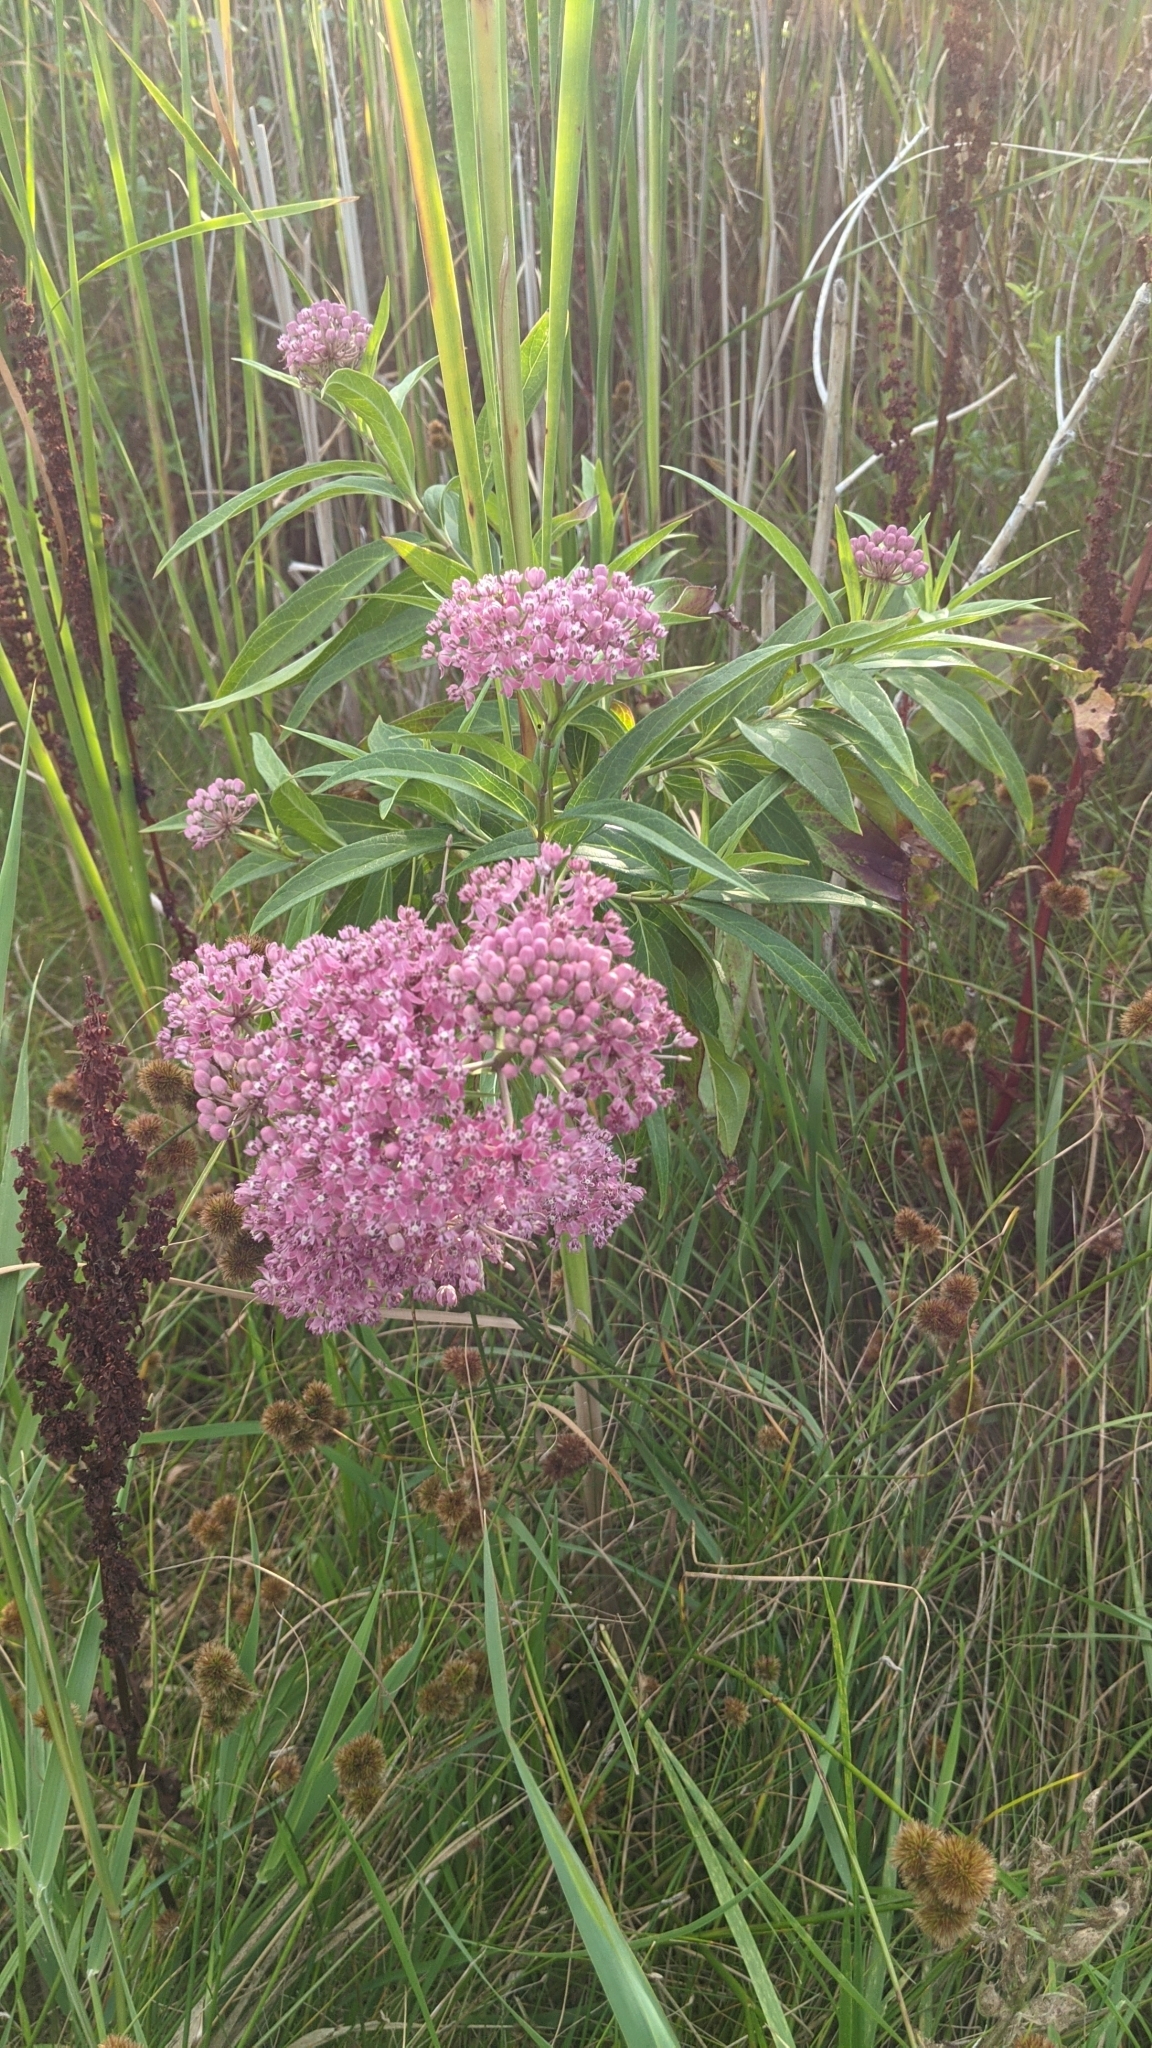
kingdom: Plantae
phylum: Tracheophyta
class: Magnoliopsida
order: Gentianales
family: Apocynaceae
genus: Asclepias
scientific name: Asclepias incarnata
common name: Swamp milkweed
